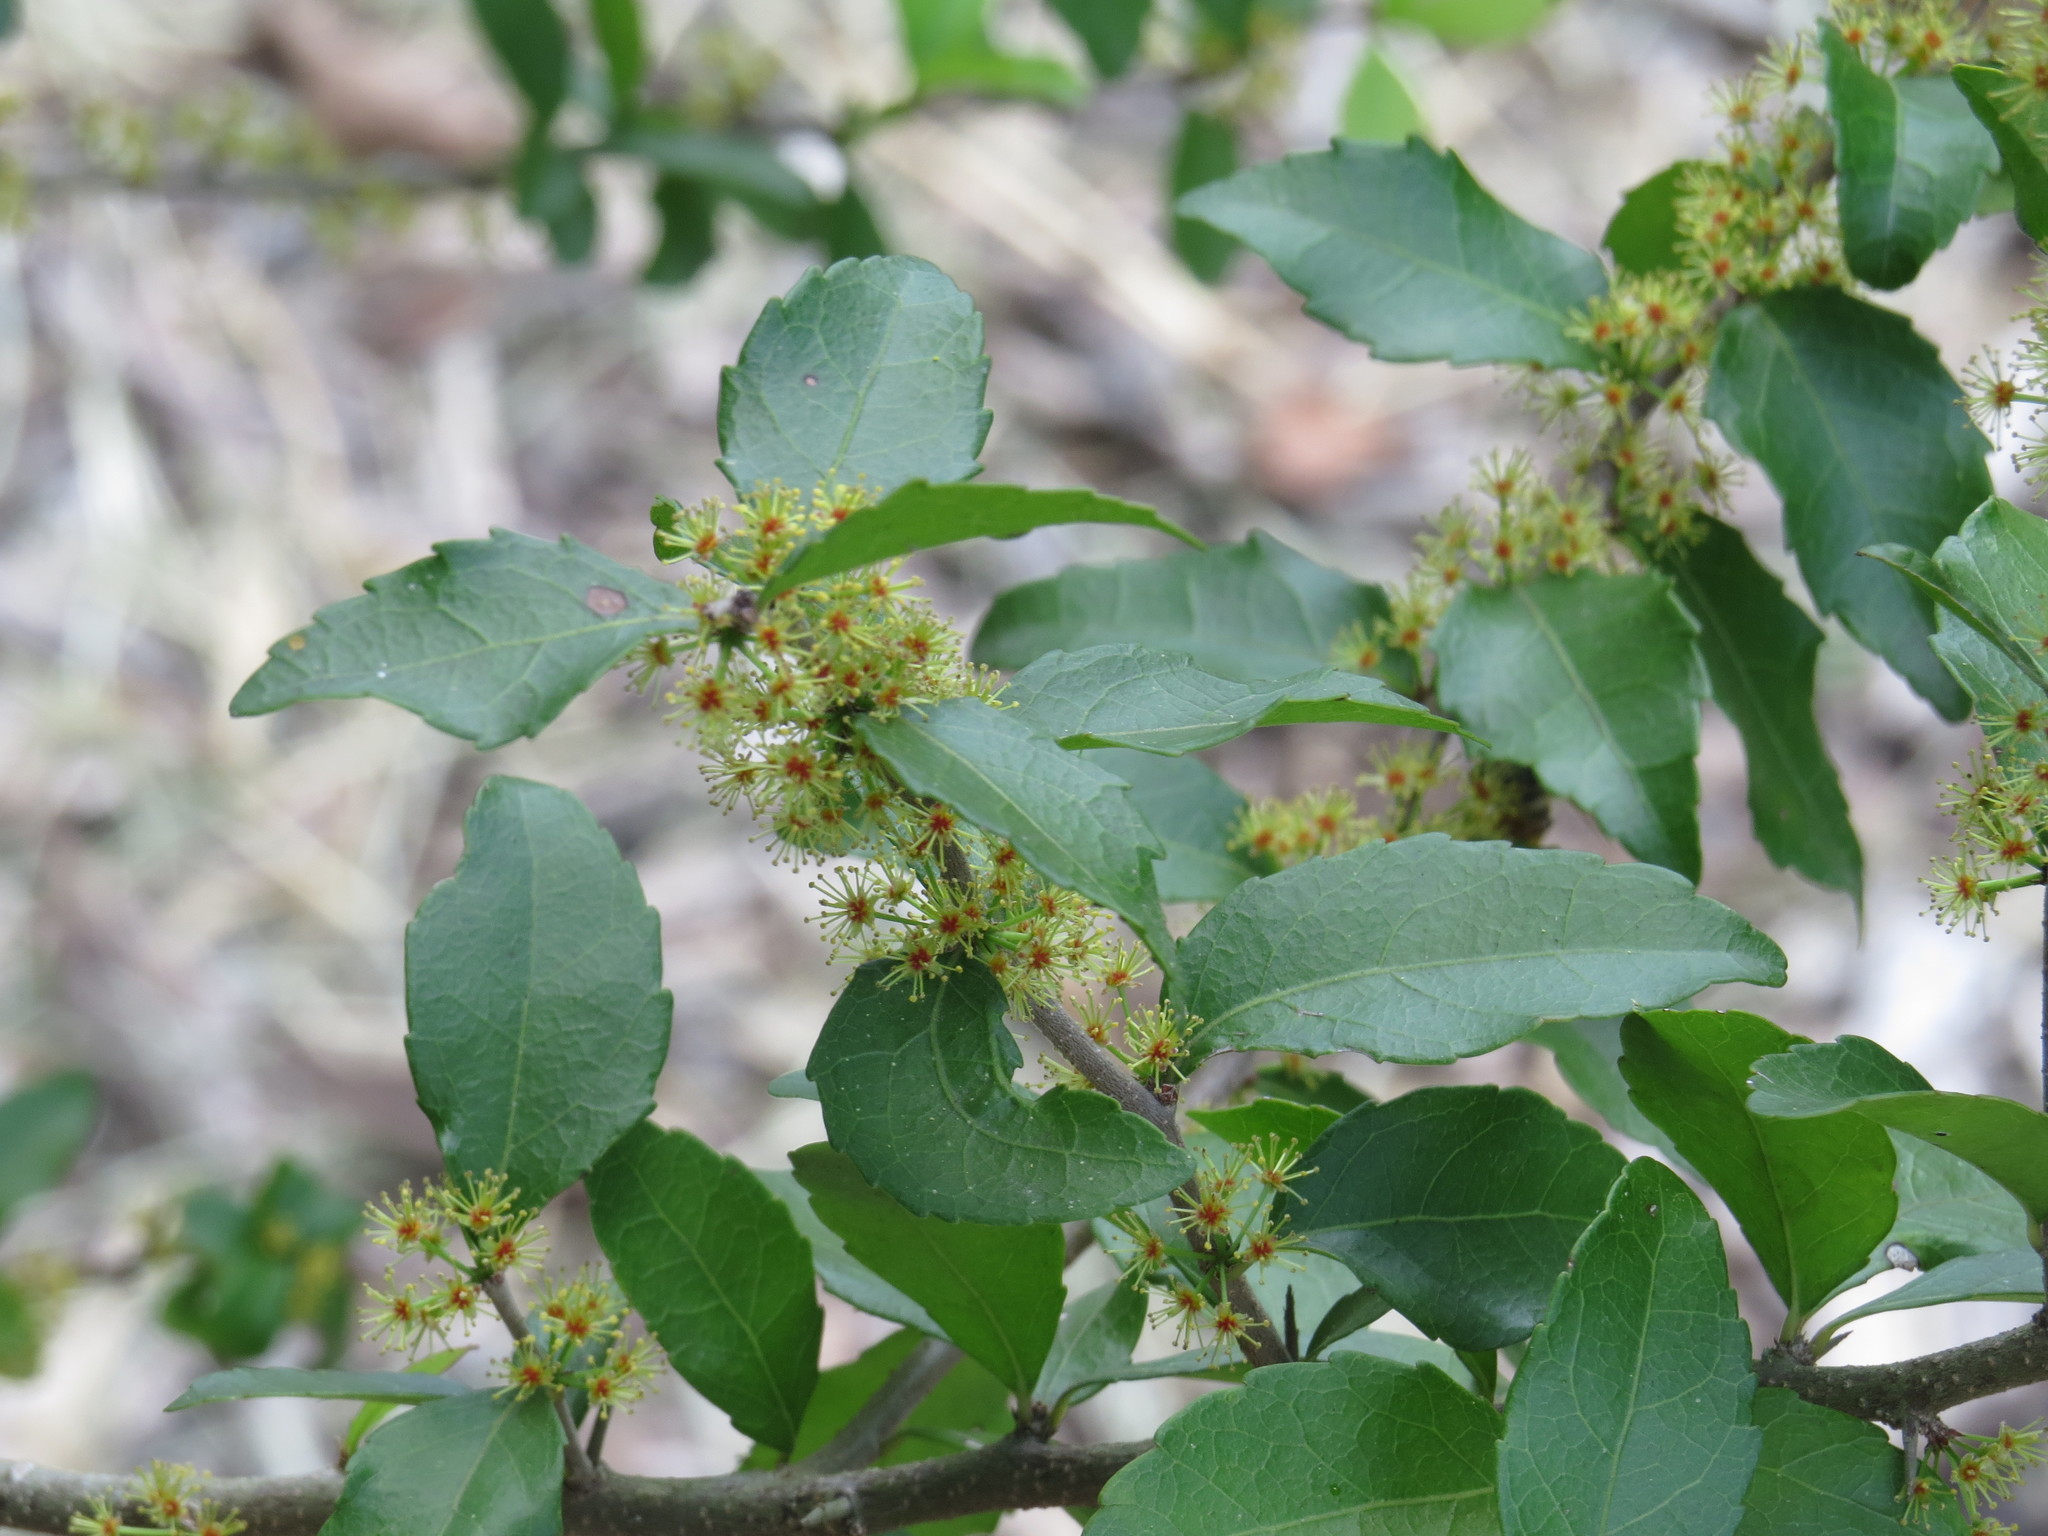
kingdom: Plantae
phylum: Tracheophyta
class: Magnoliopsida
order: Malpighiales
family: Salicaceae
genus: Xylosma
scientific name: Xylosma flexuosa
